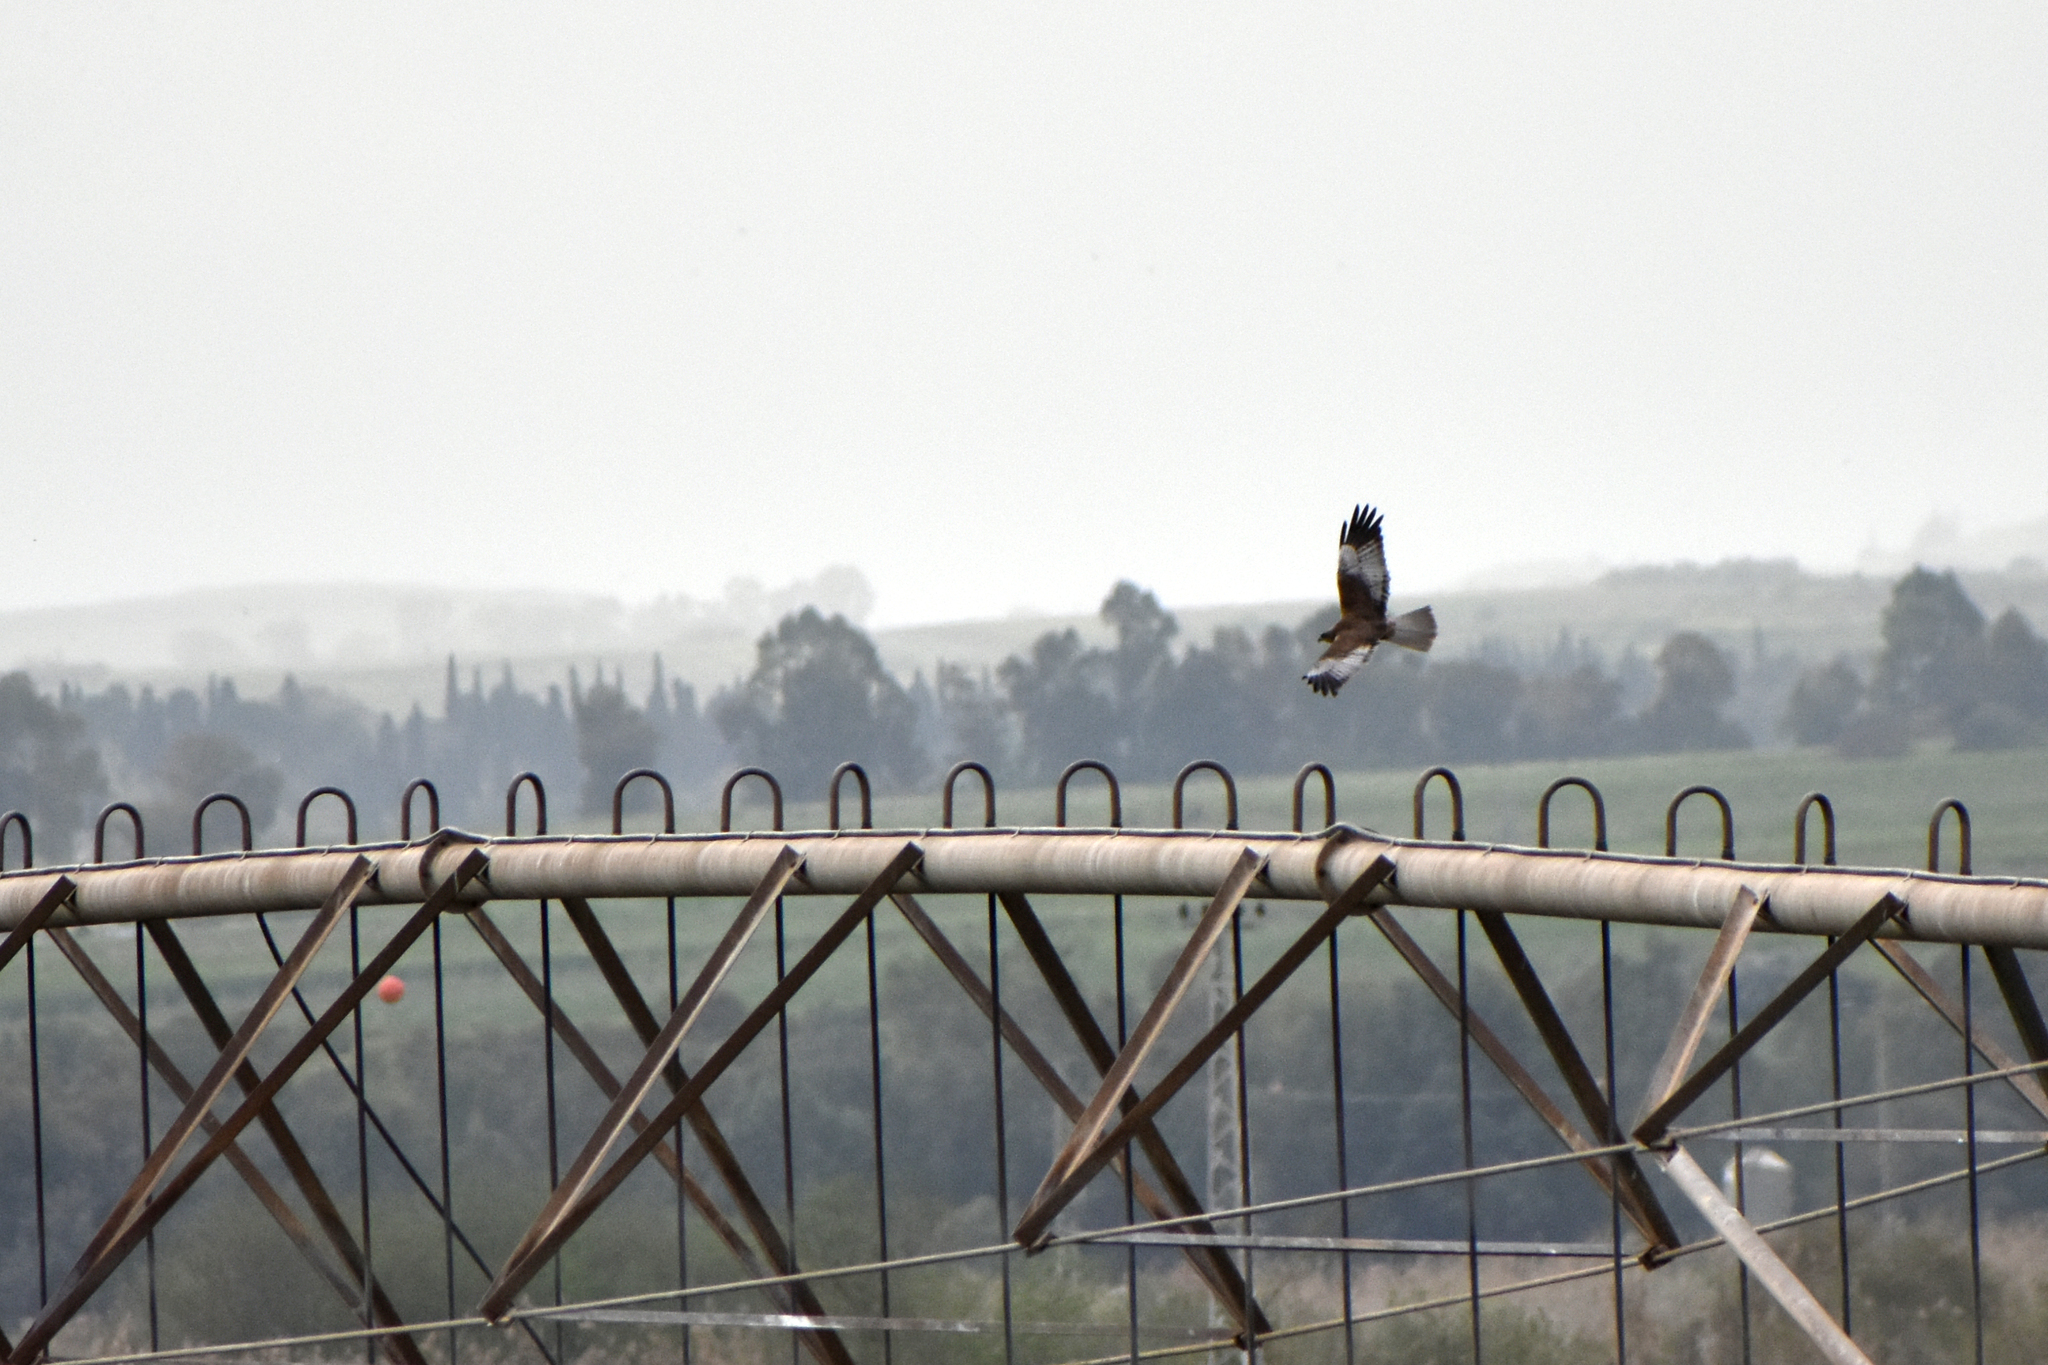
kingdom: Animalia
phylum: Chordata
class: Aves
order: Accipitriformes
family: Accipitridae
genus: Circus
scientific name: Circus aeruginosus
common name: Western marsh harrier
